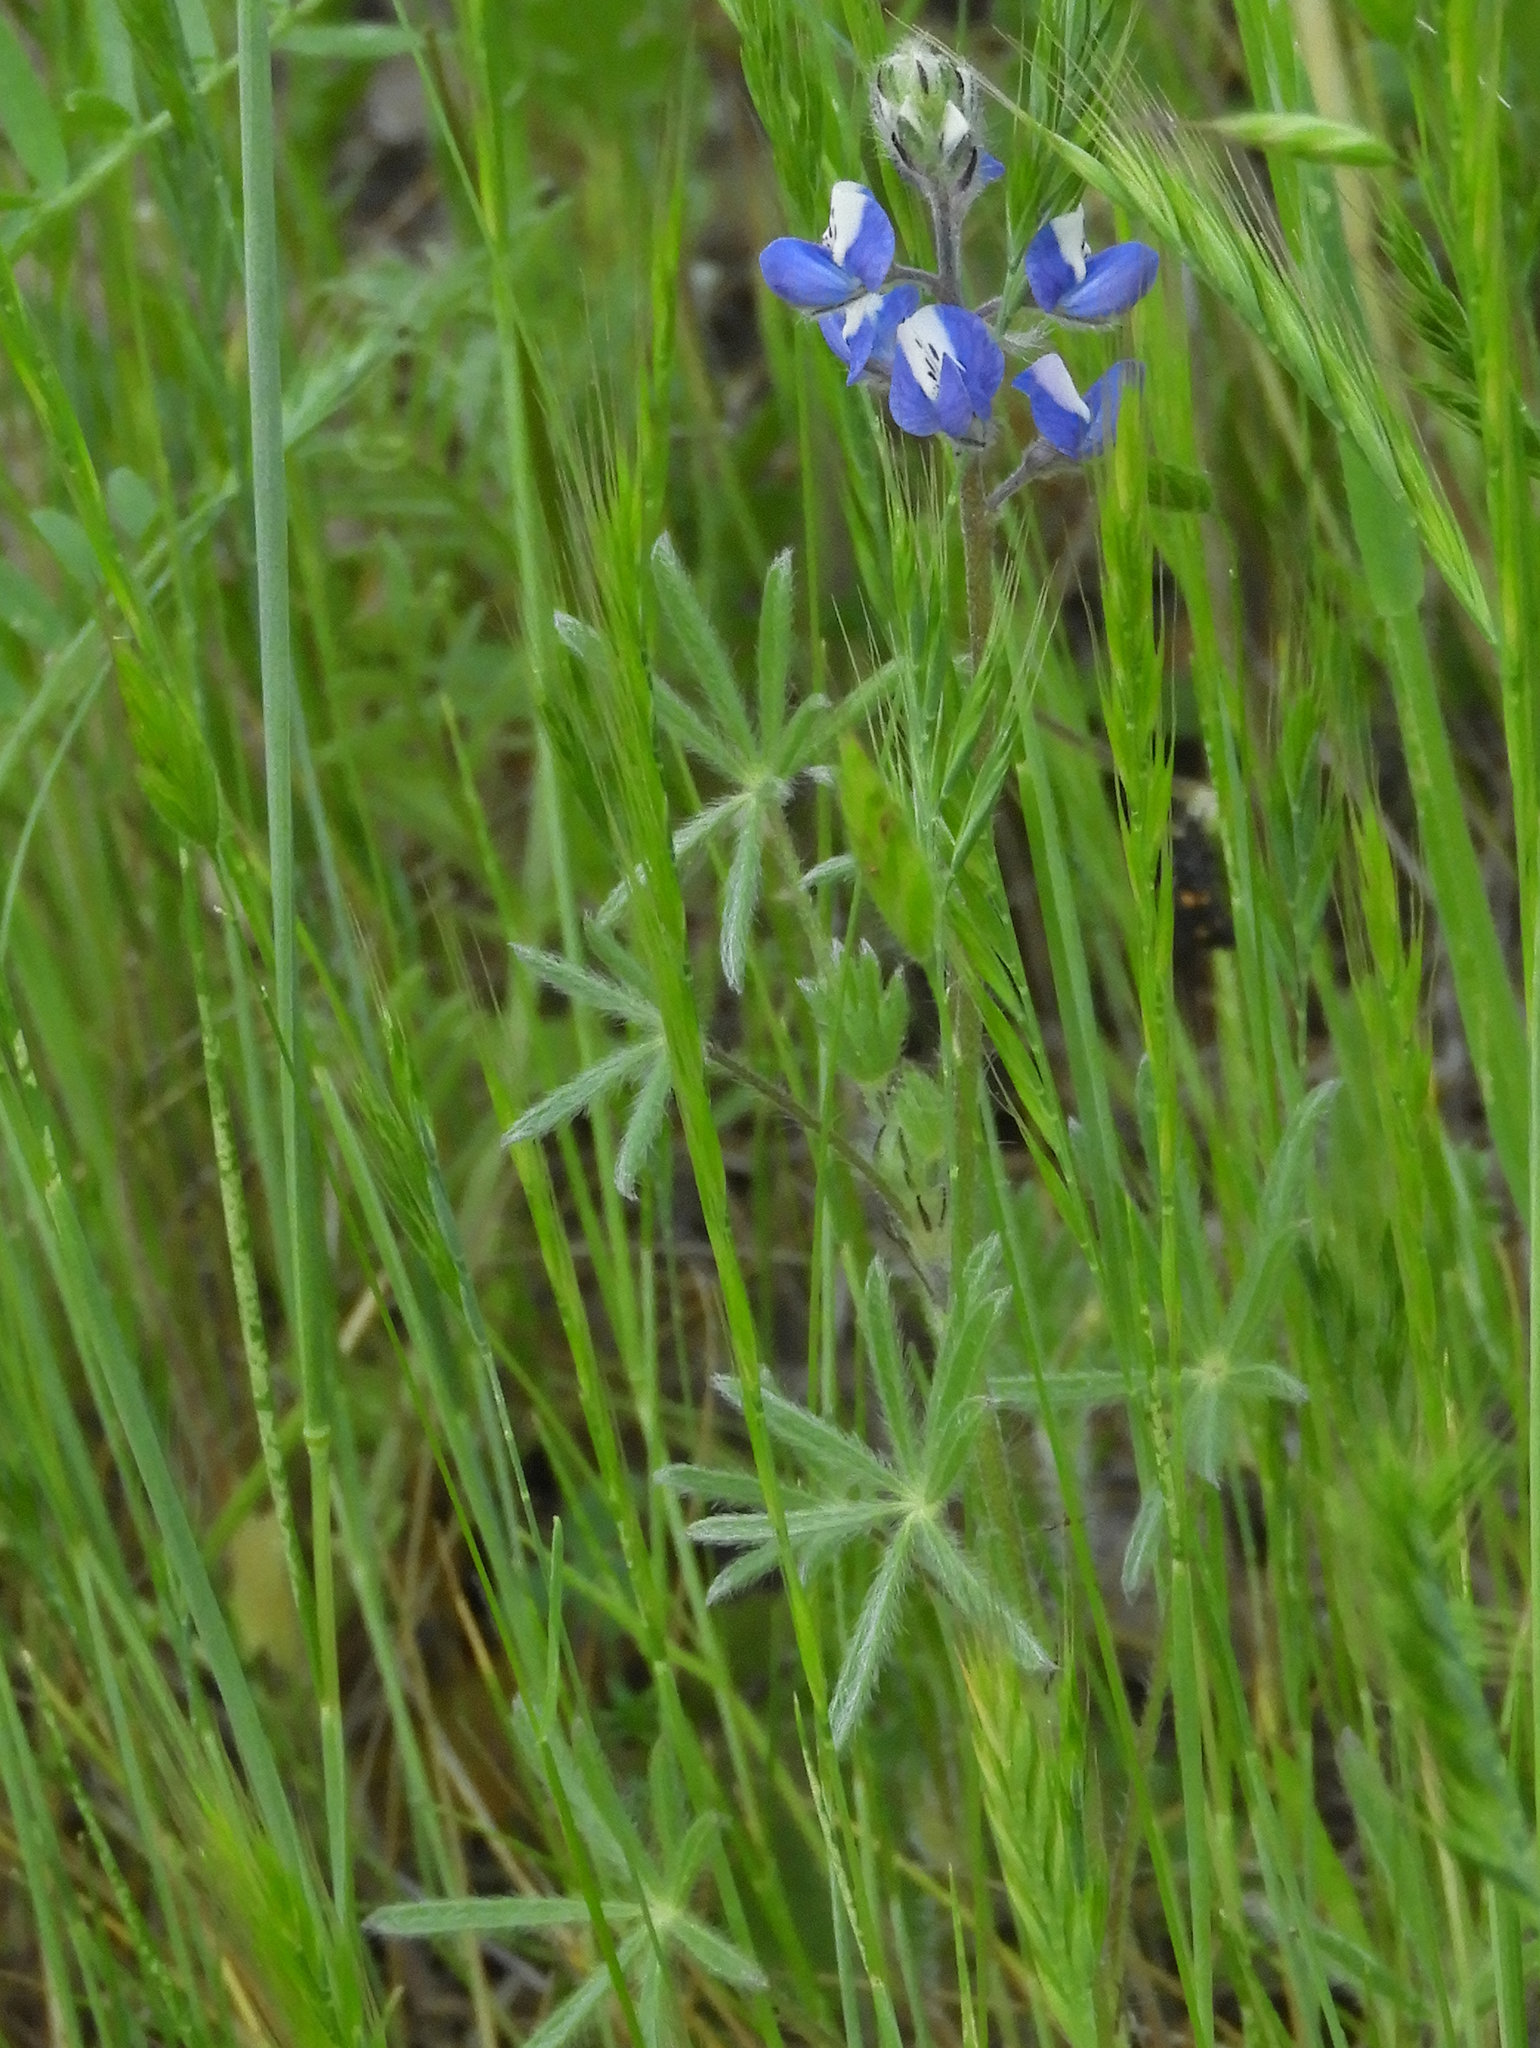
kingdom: Plantae
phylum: Tracheophyta
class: Magnoliopsida
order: Fabales
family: Fabaceae
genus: Lupinus
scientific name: Lupinus bicolor
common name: Miniature lupine
